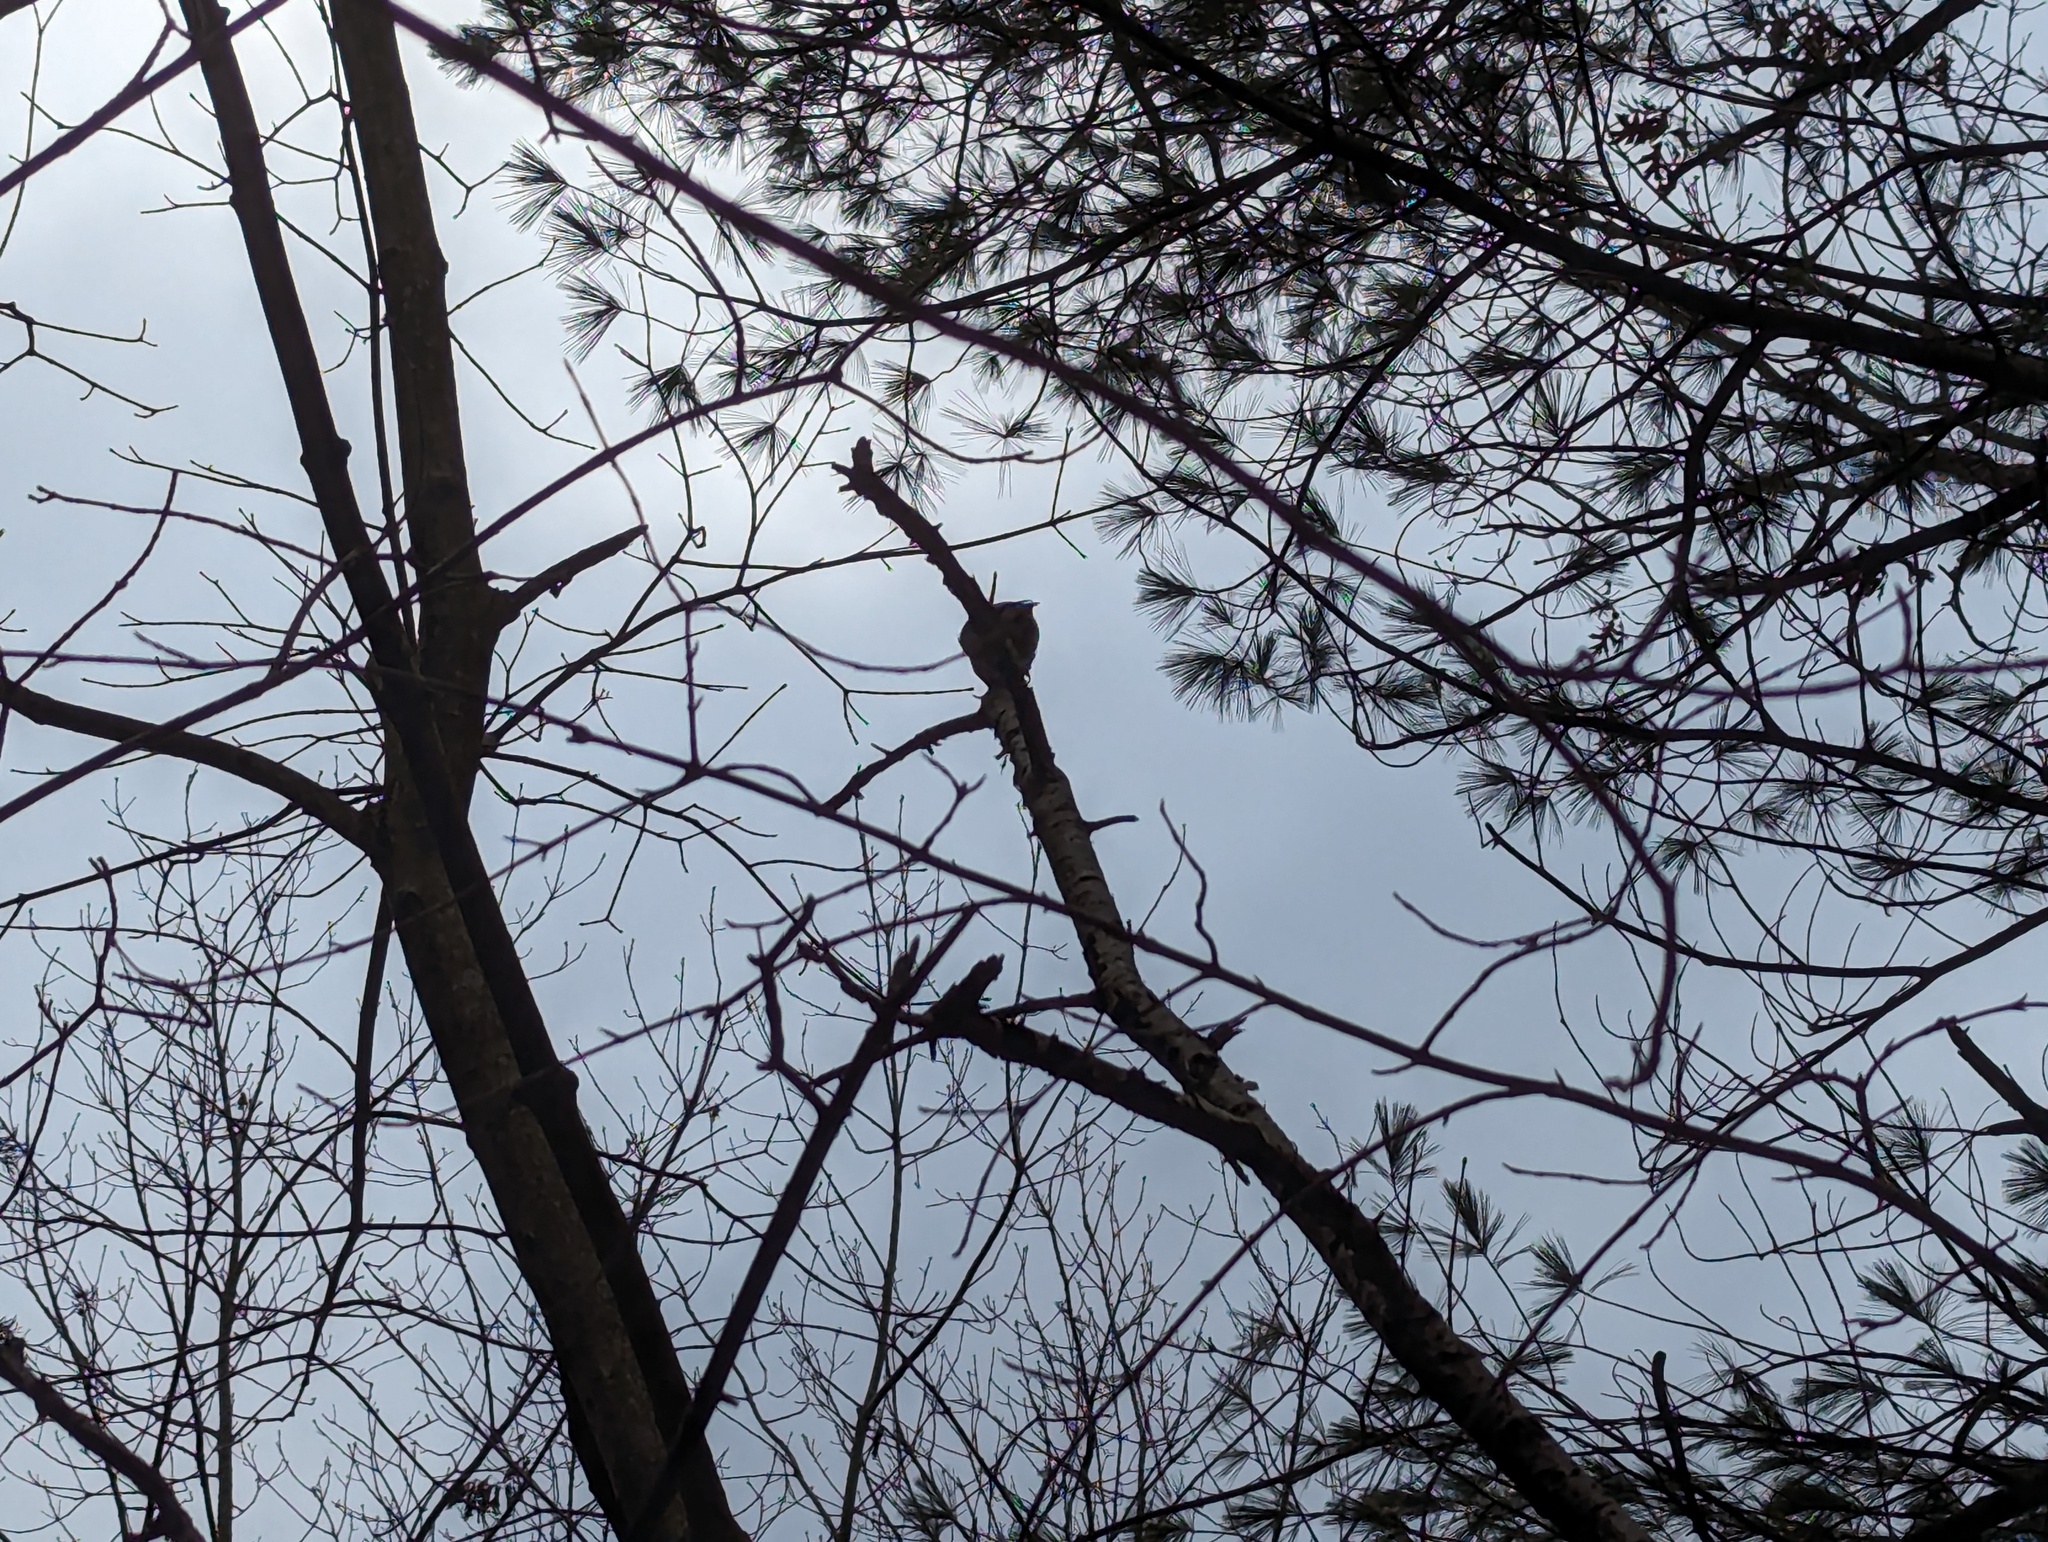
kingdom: Animalia
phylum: Chordata
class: Aves
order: Passeriformes
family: Sittidae
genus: Sitta
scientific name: Sitta carolinensis
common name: White-breasted nuthatch
